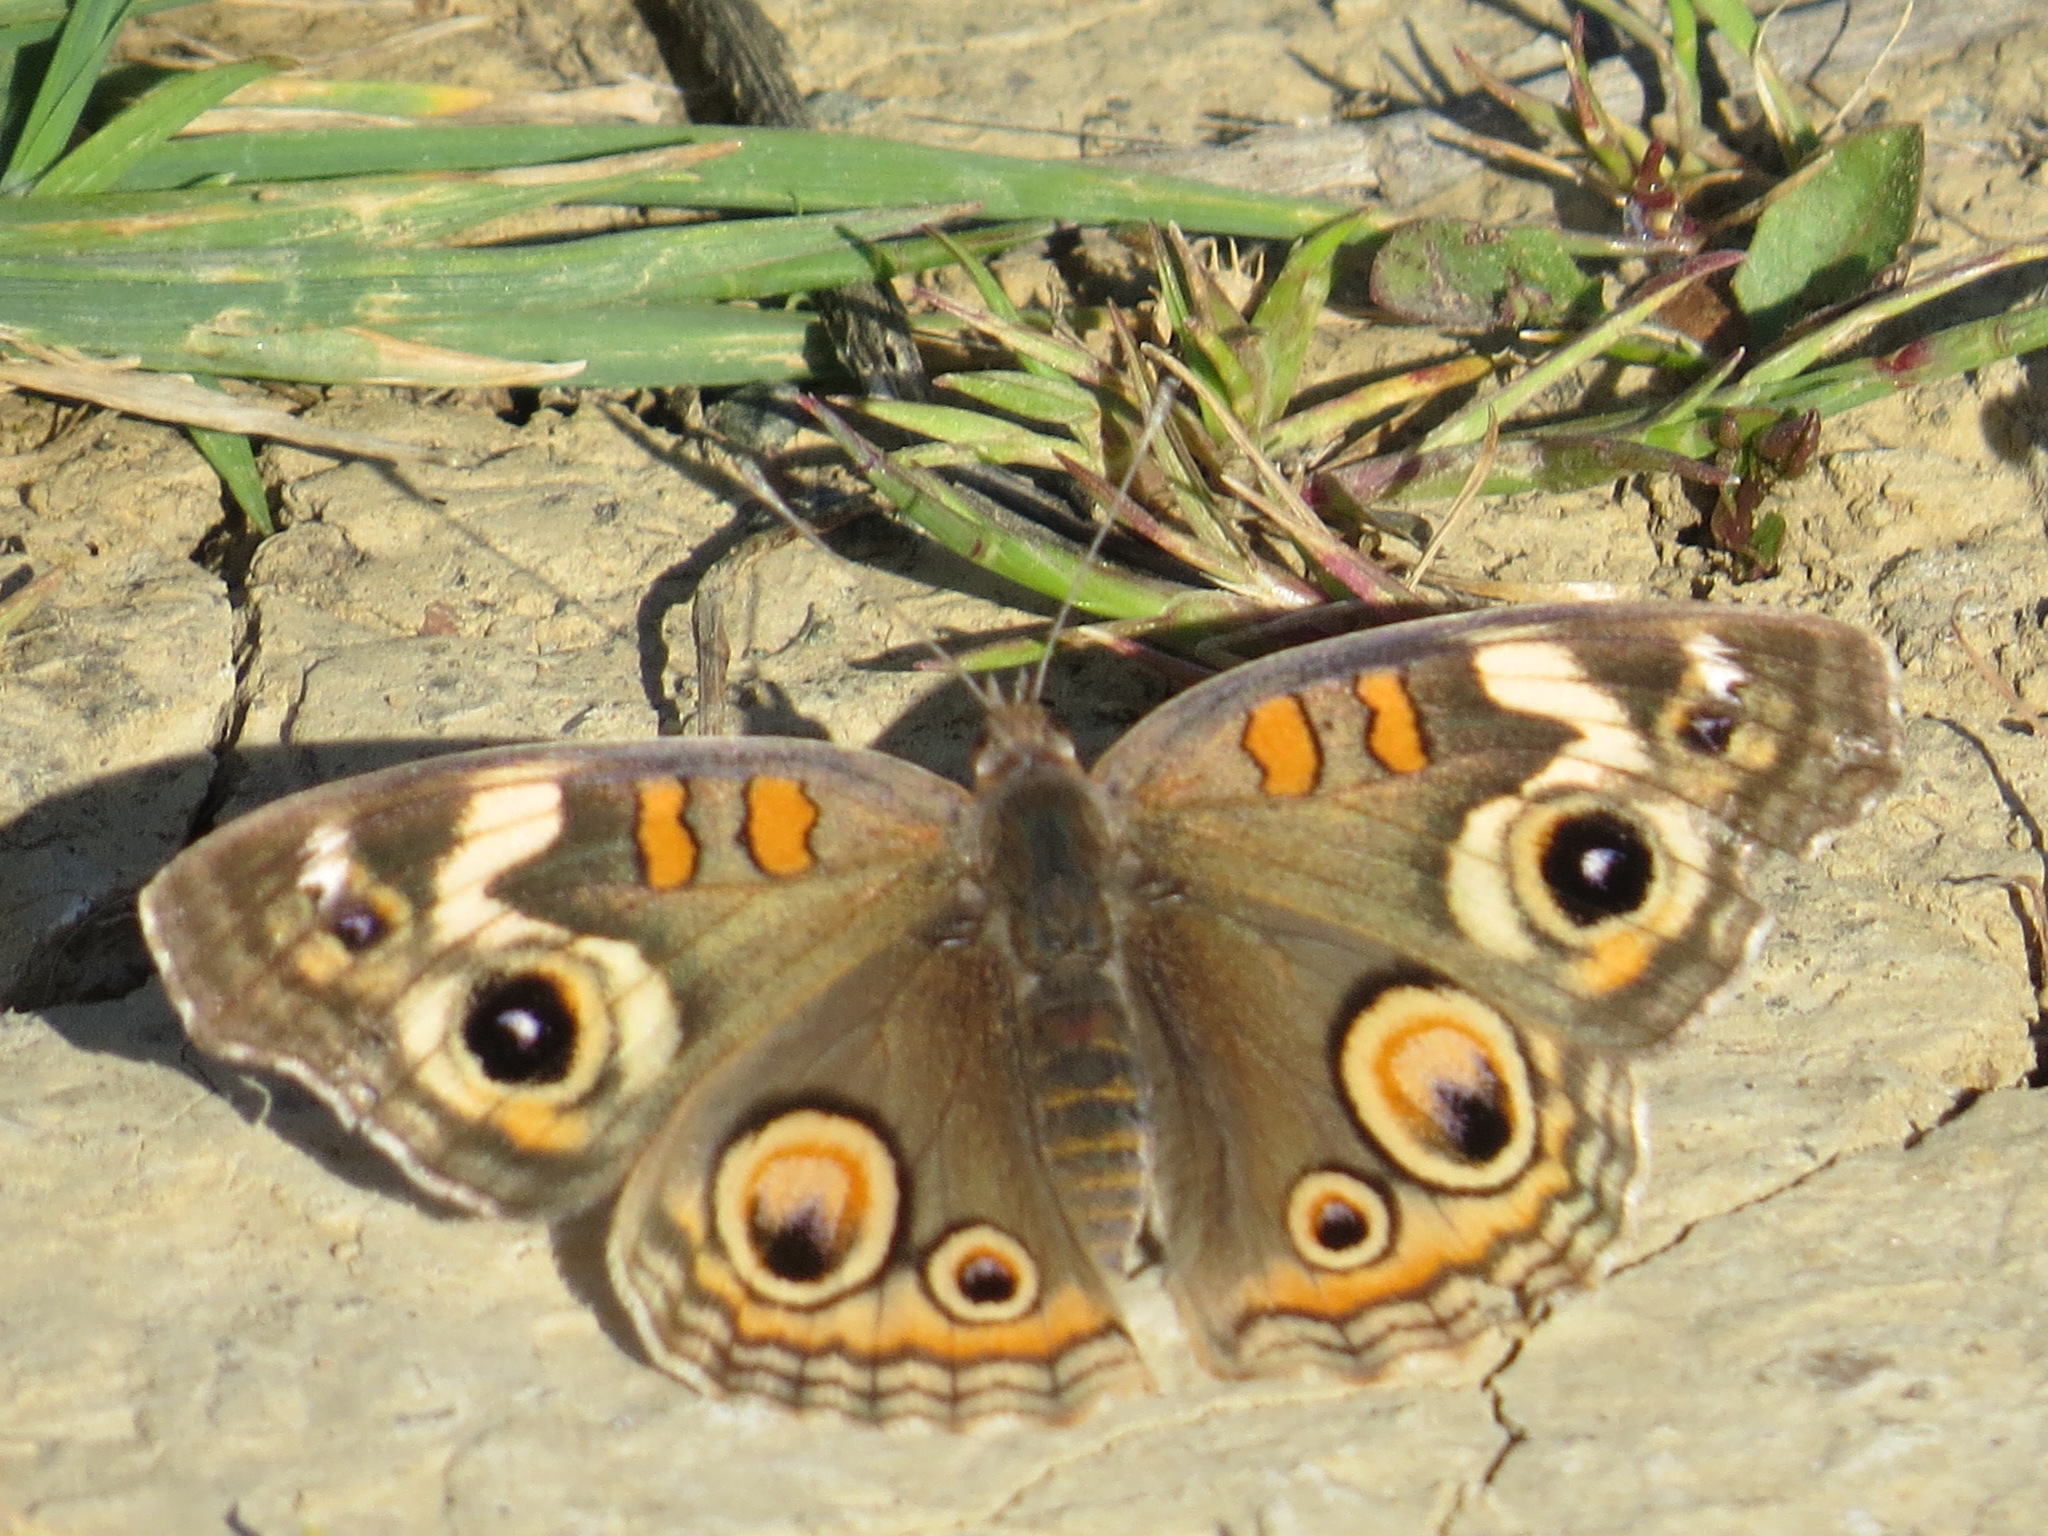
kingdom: Animalia
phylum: Arthropoda
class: Insecta
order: Lepidoptera
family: Nymphalidae
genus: Junonia
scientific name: Junonia grisea
